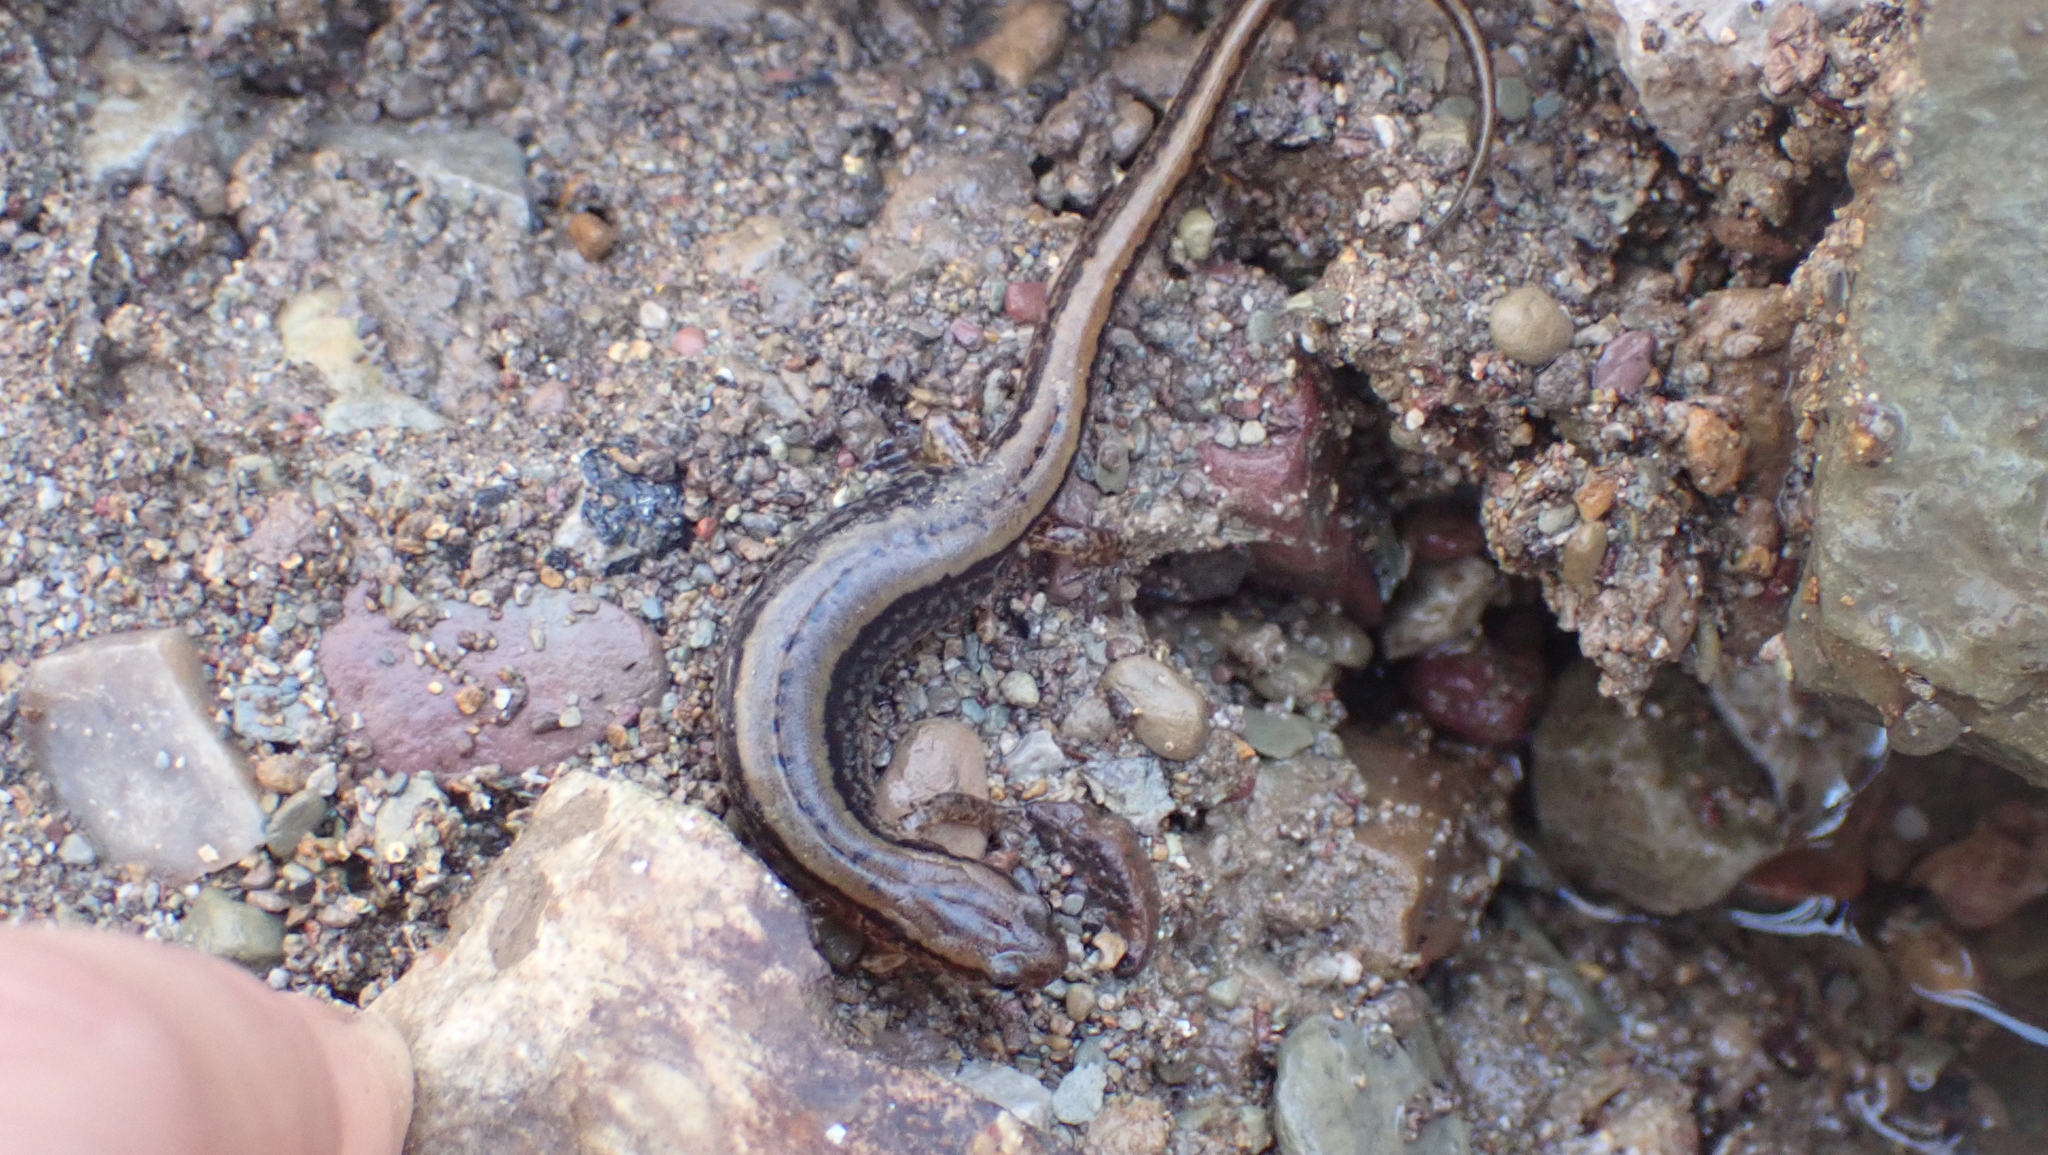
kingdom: Animalia
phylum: Chordata
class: Amphibia
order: Caudata
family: Plethodontidae
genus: Eurycea
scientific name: Eurycea cirrigera
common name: Southern two-lined salamander
